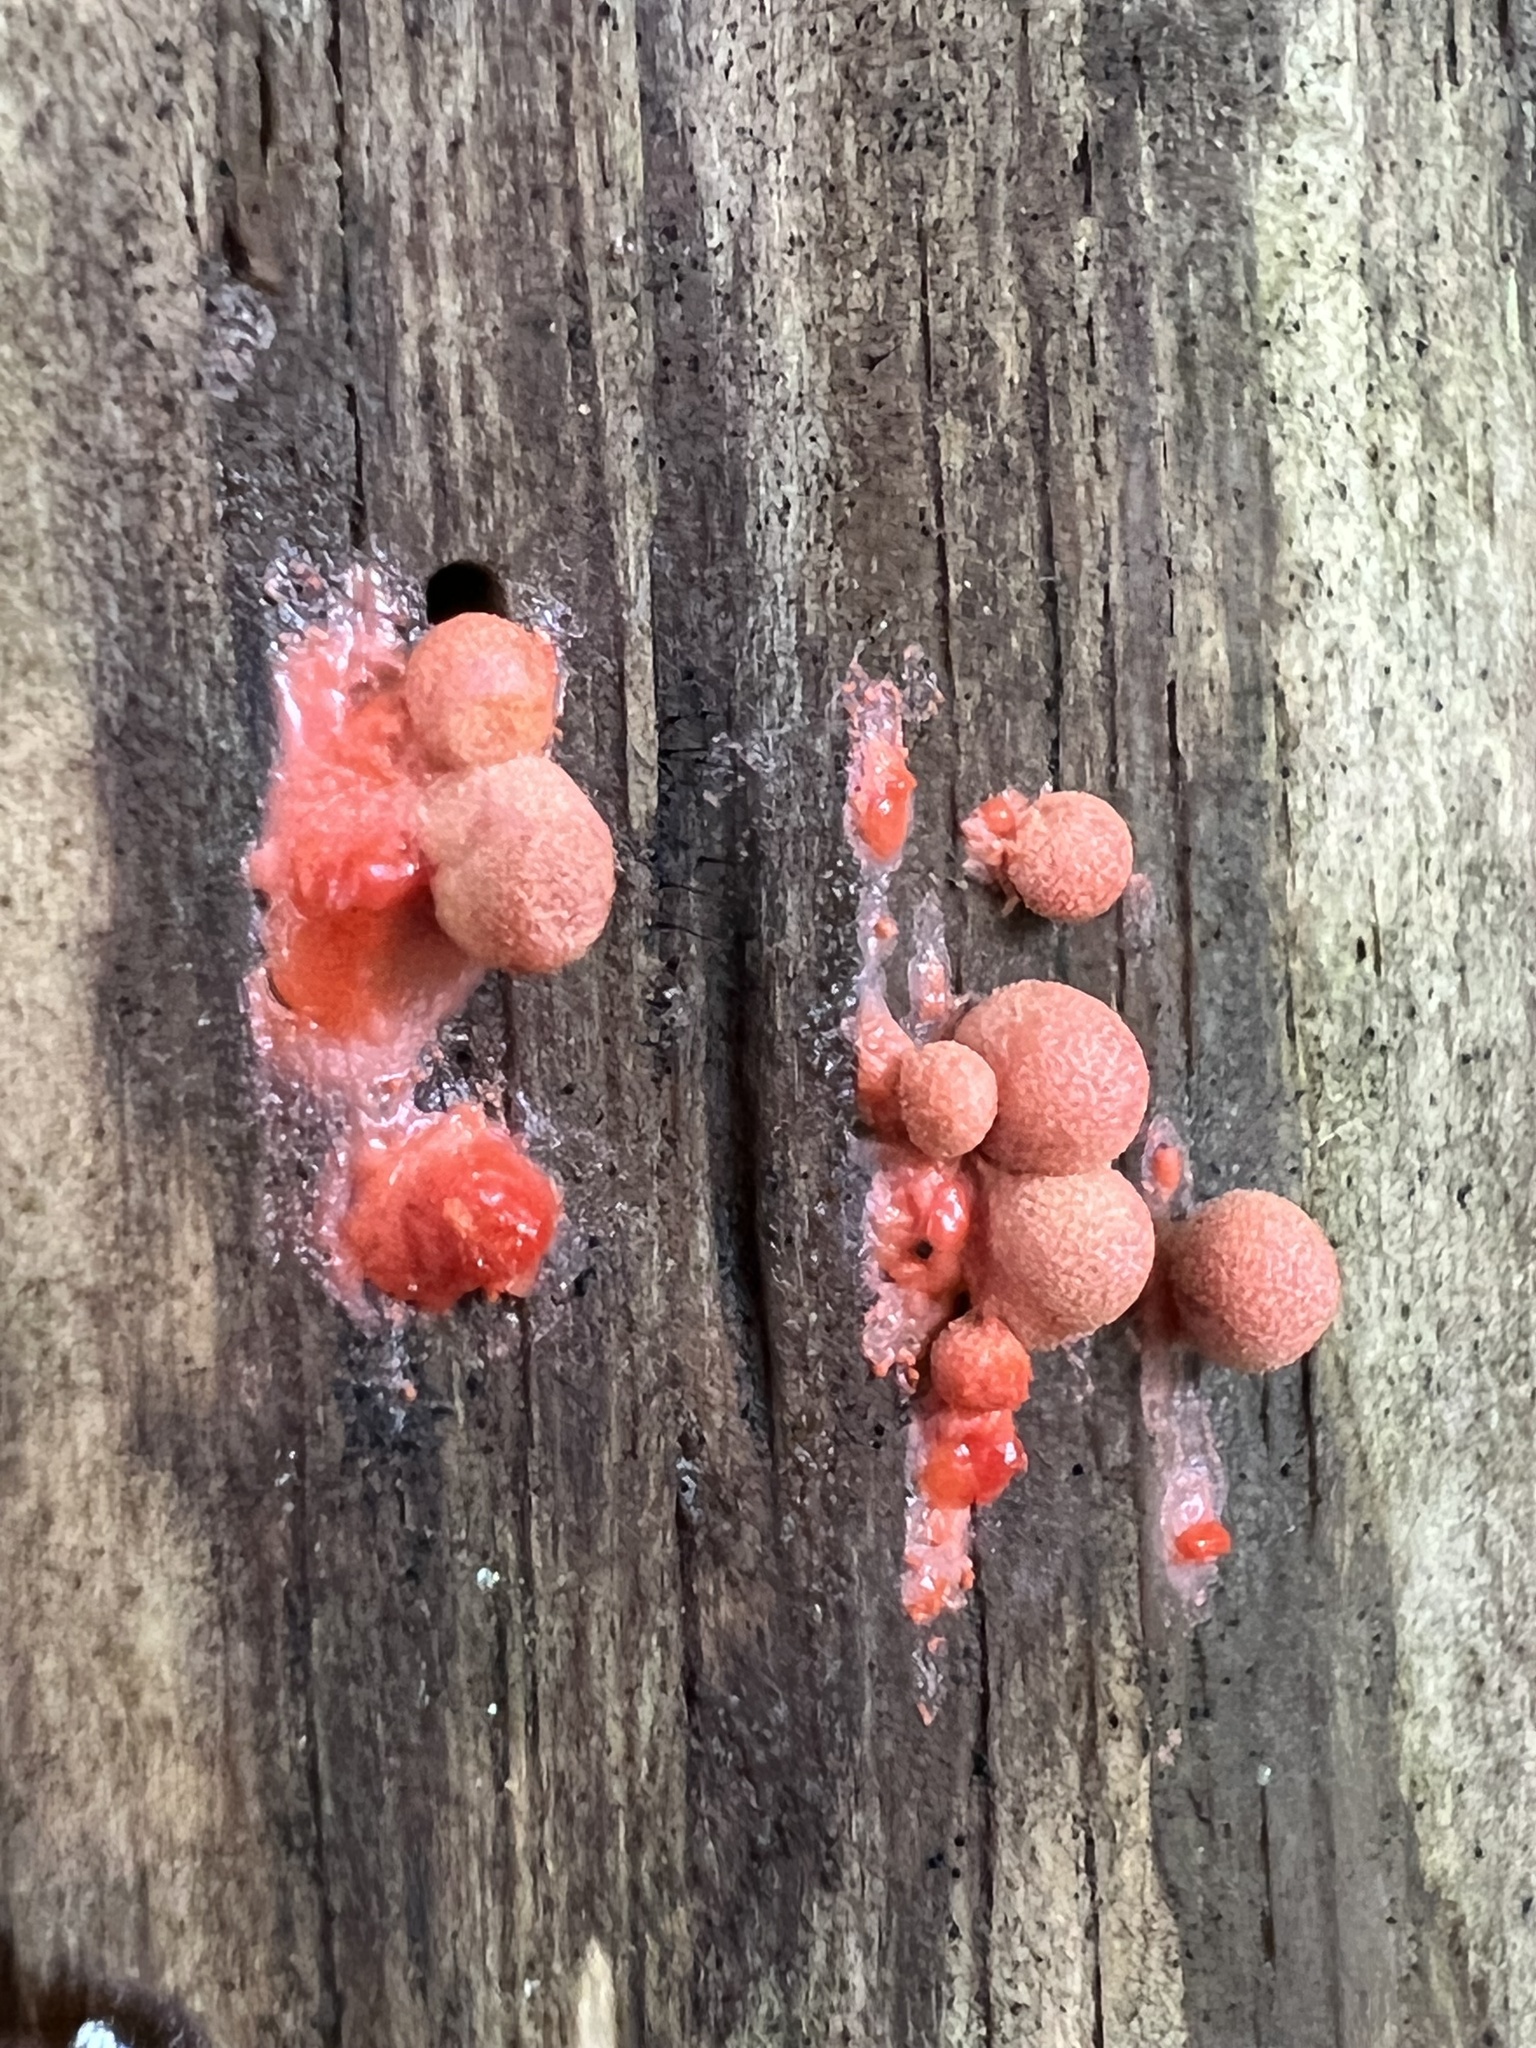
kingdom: Protozoa
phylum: Mycetozoa
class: Myxomycetes
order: Cribrariales
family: Tubiferaceae
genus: Lycogala
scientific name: Lycogala epidendrum
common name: Wolf's milk
